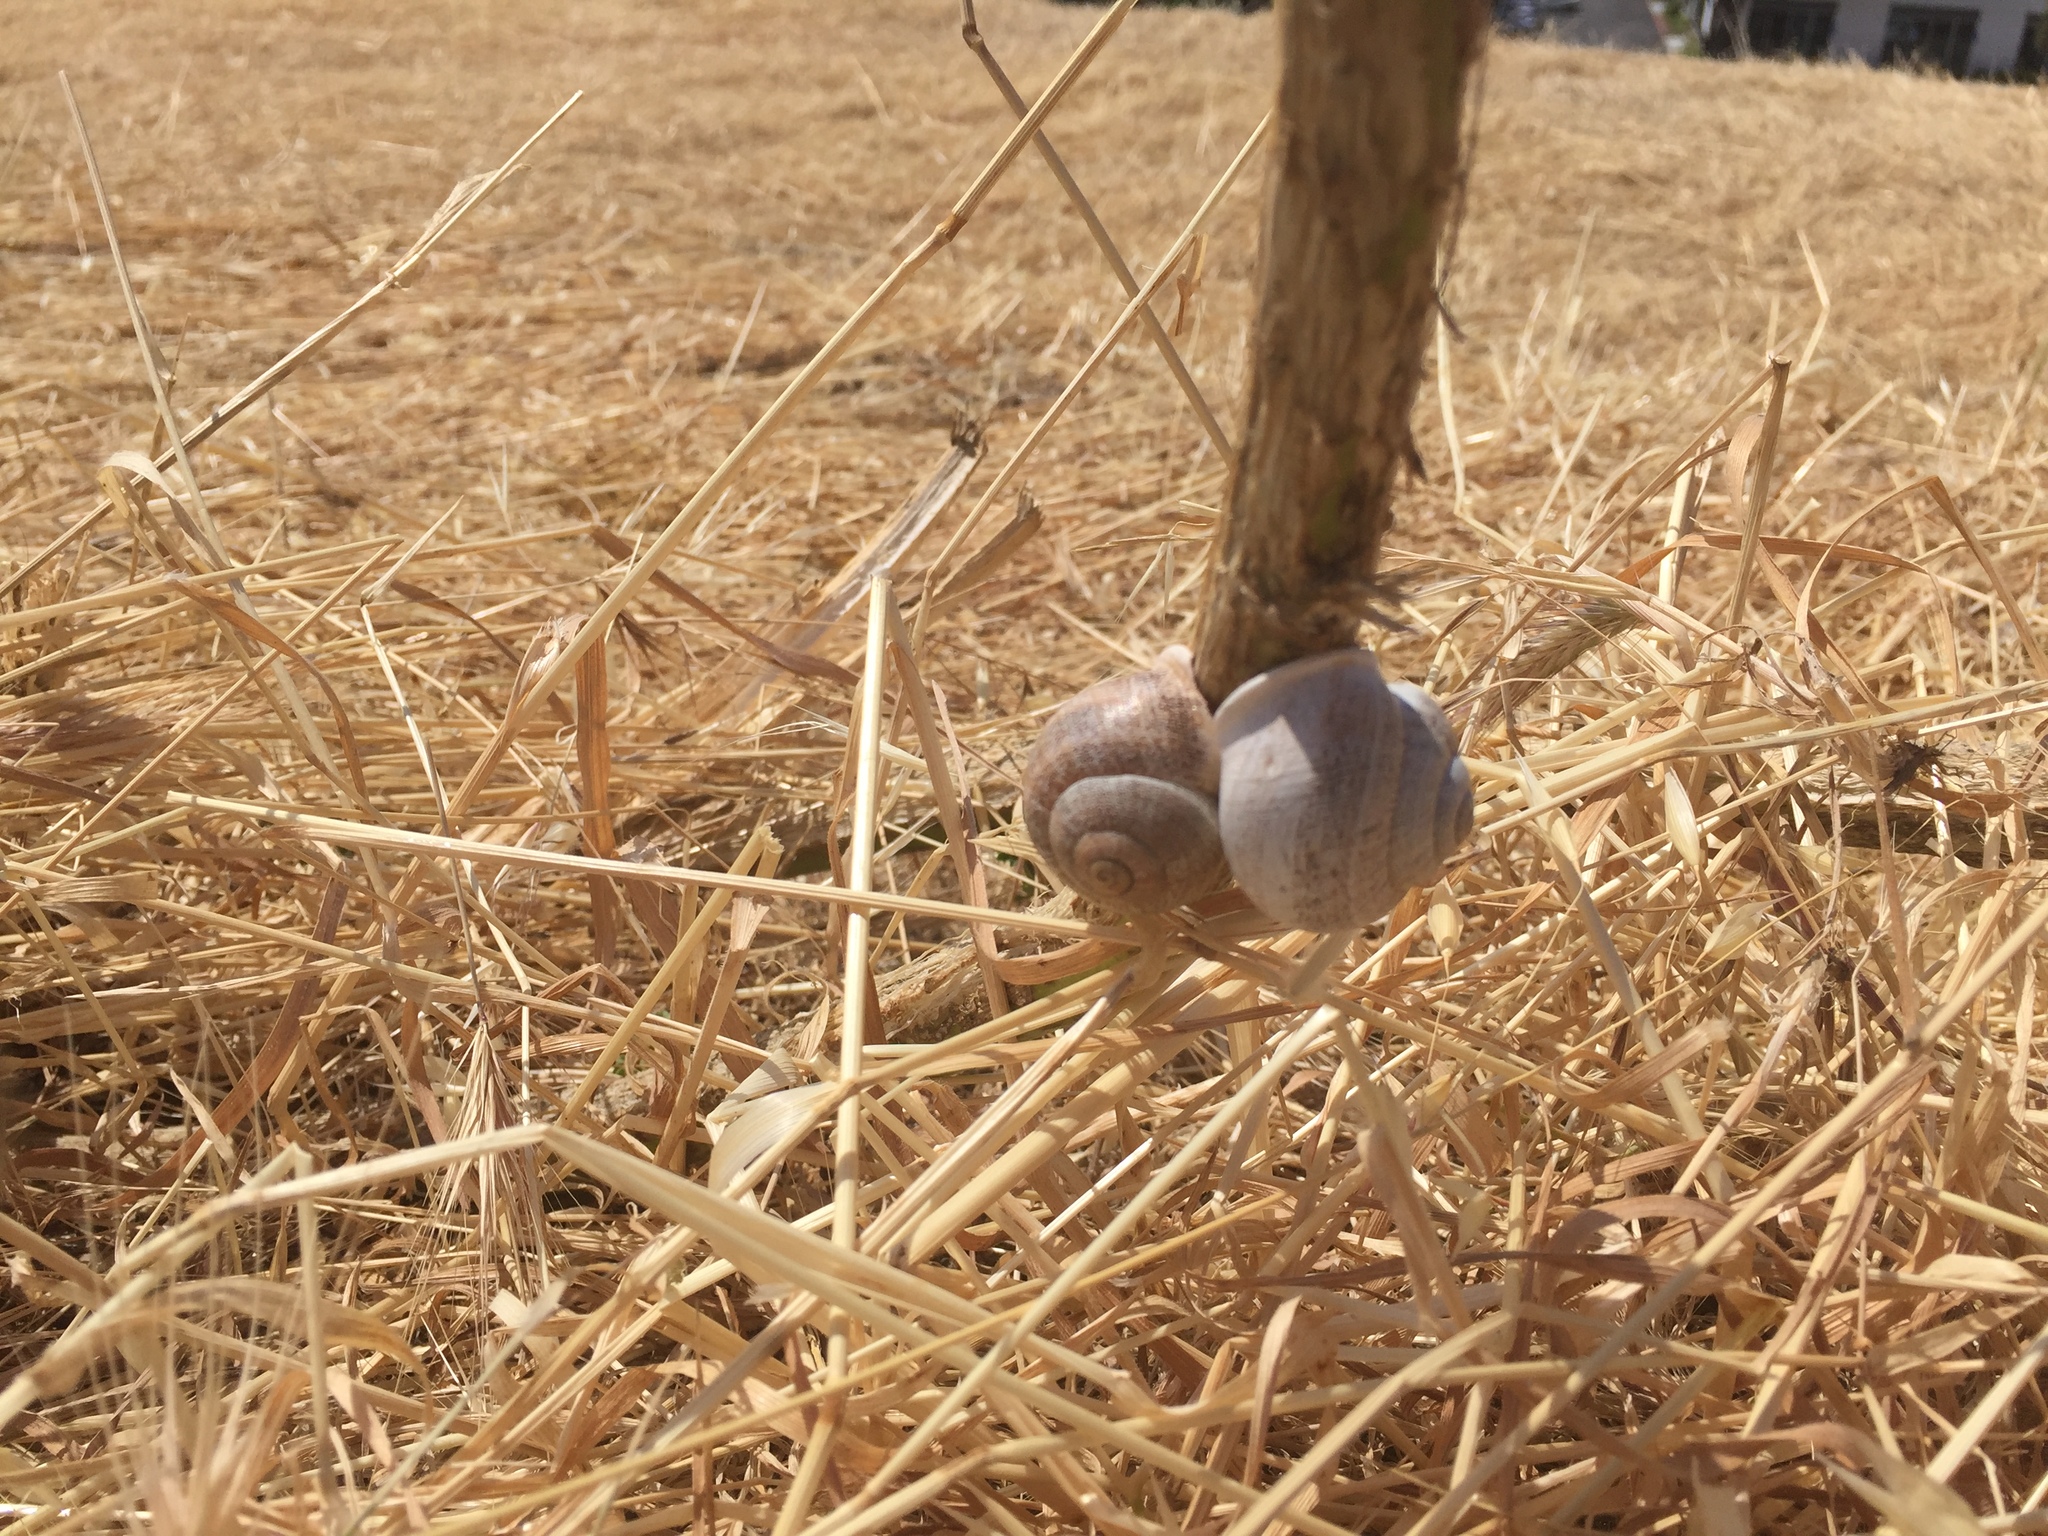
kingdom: Animalia
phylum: Mollusca
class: Gastropoda
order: Stylommatophora
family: Helicidae
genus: Otala
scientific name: Otala lactea
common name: Milk snail
